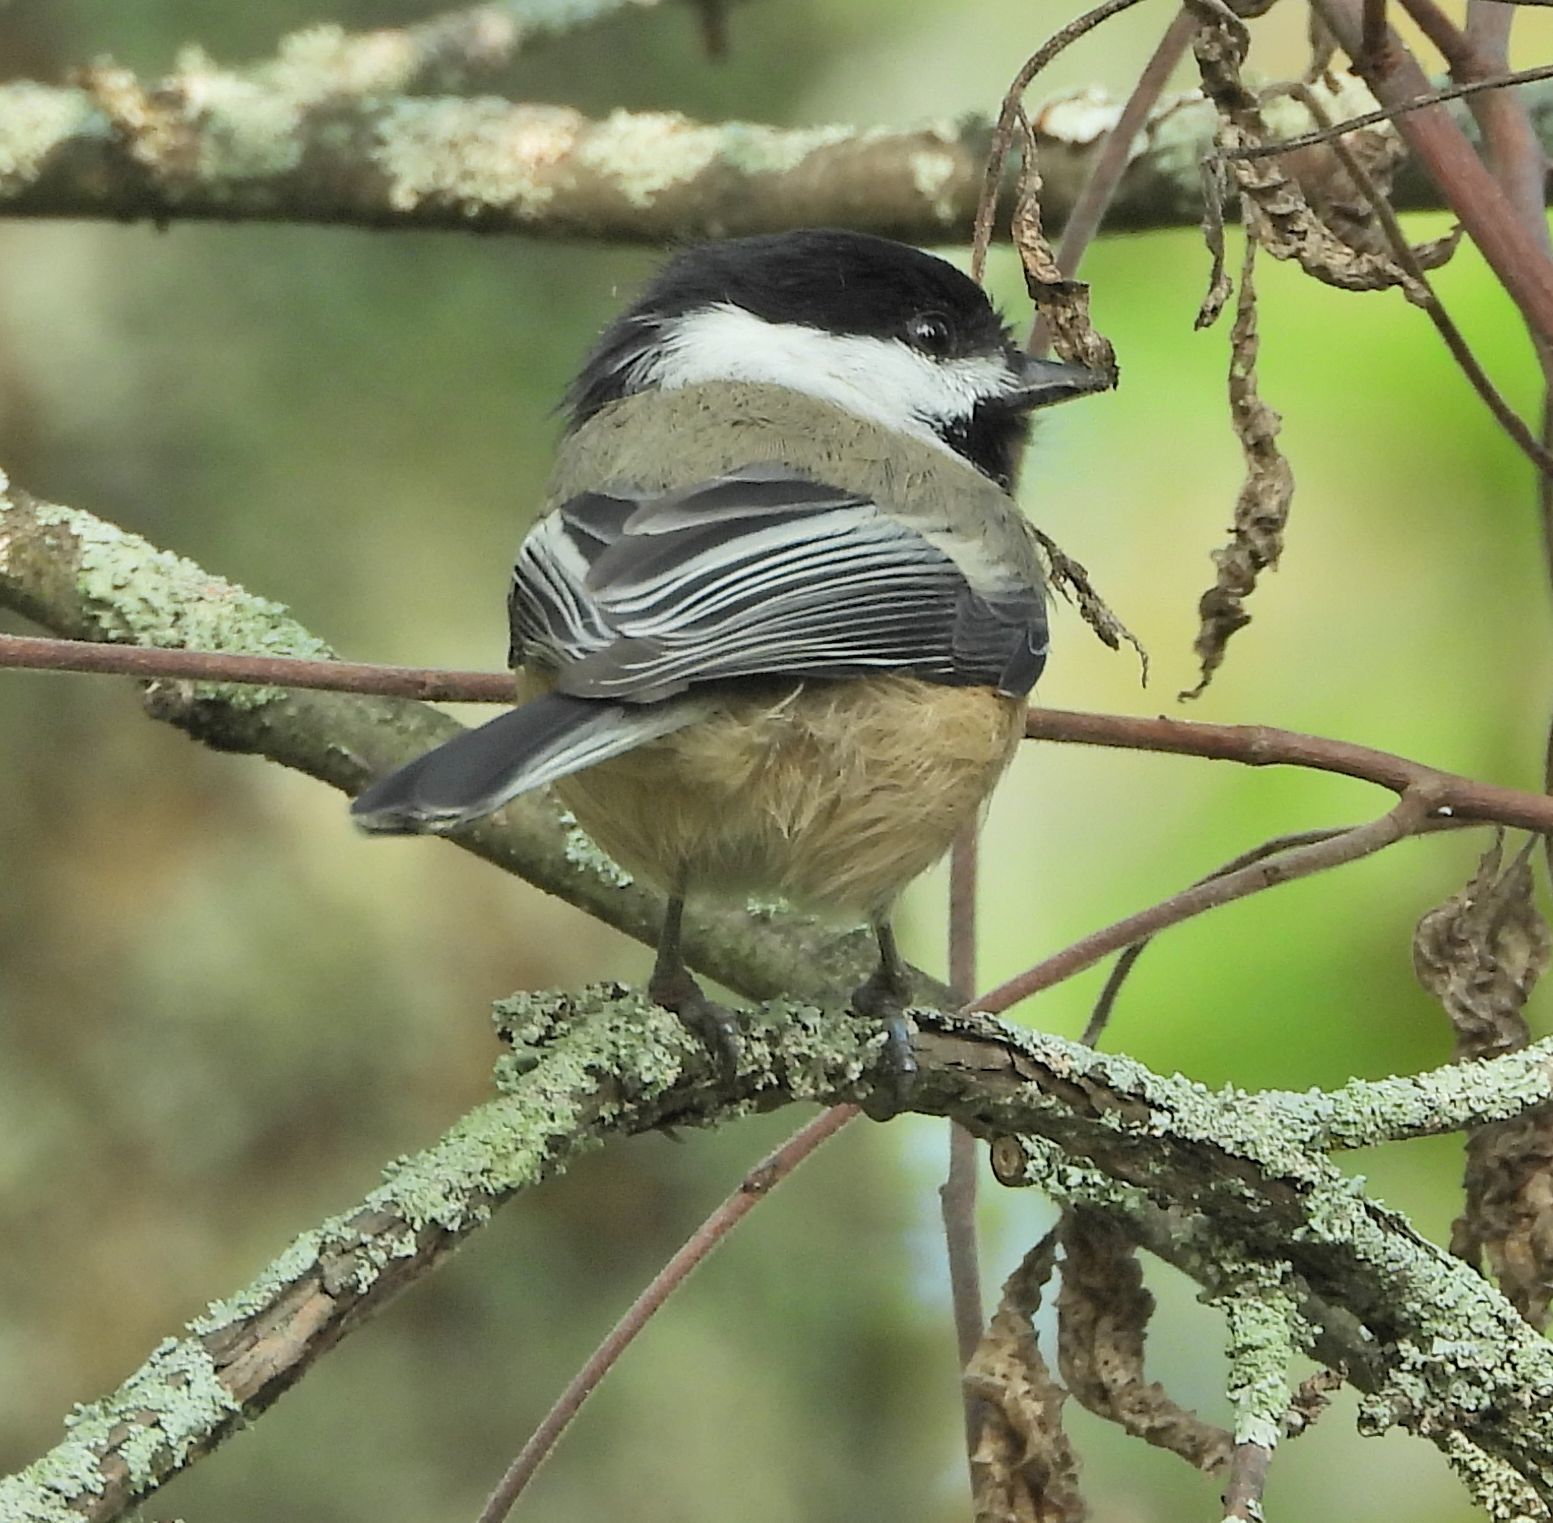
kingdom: Animalia
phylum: Chordata
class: Aves
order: Passeriformes
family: Paridae
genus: Poecile
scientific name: Poecile atricapillus
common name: Black-capped chickadee
